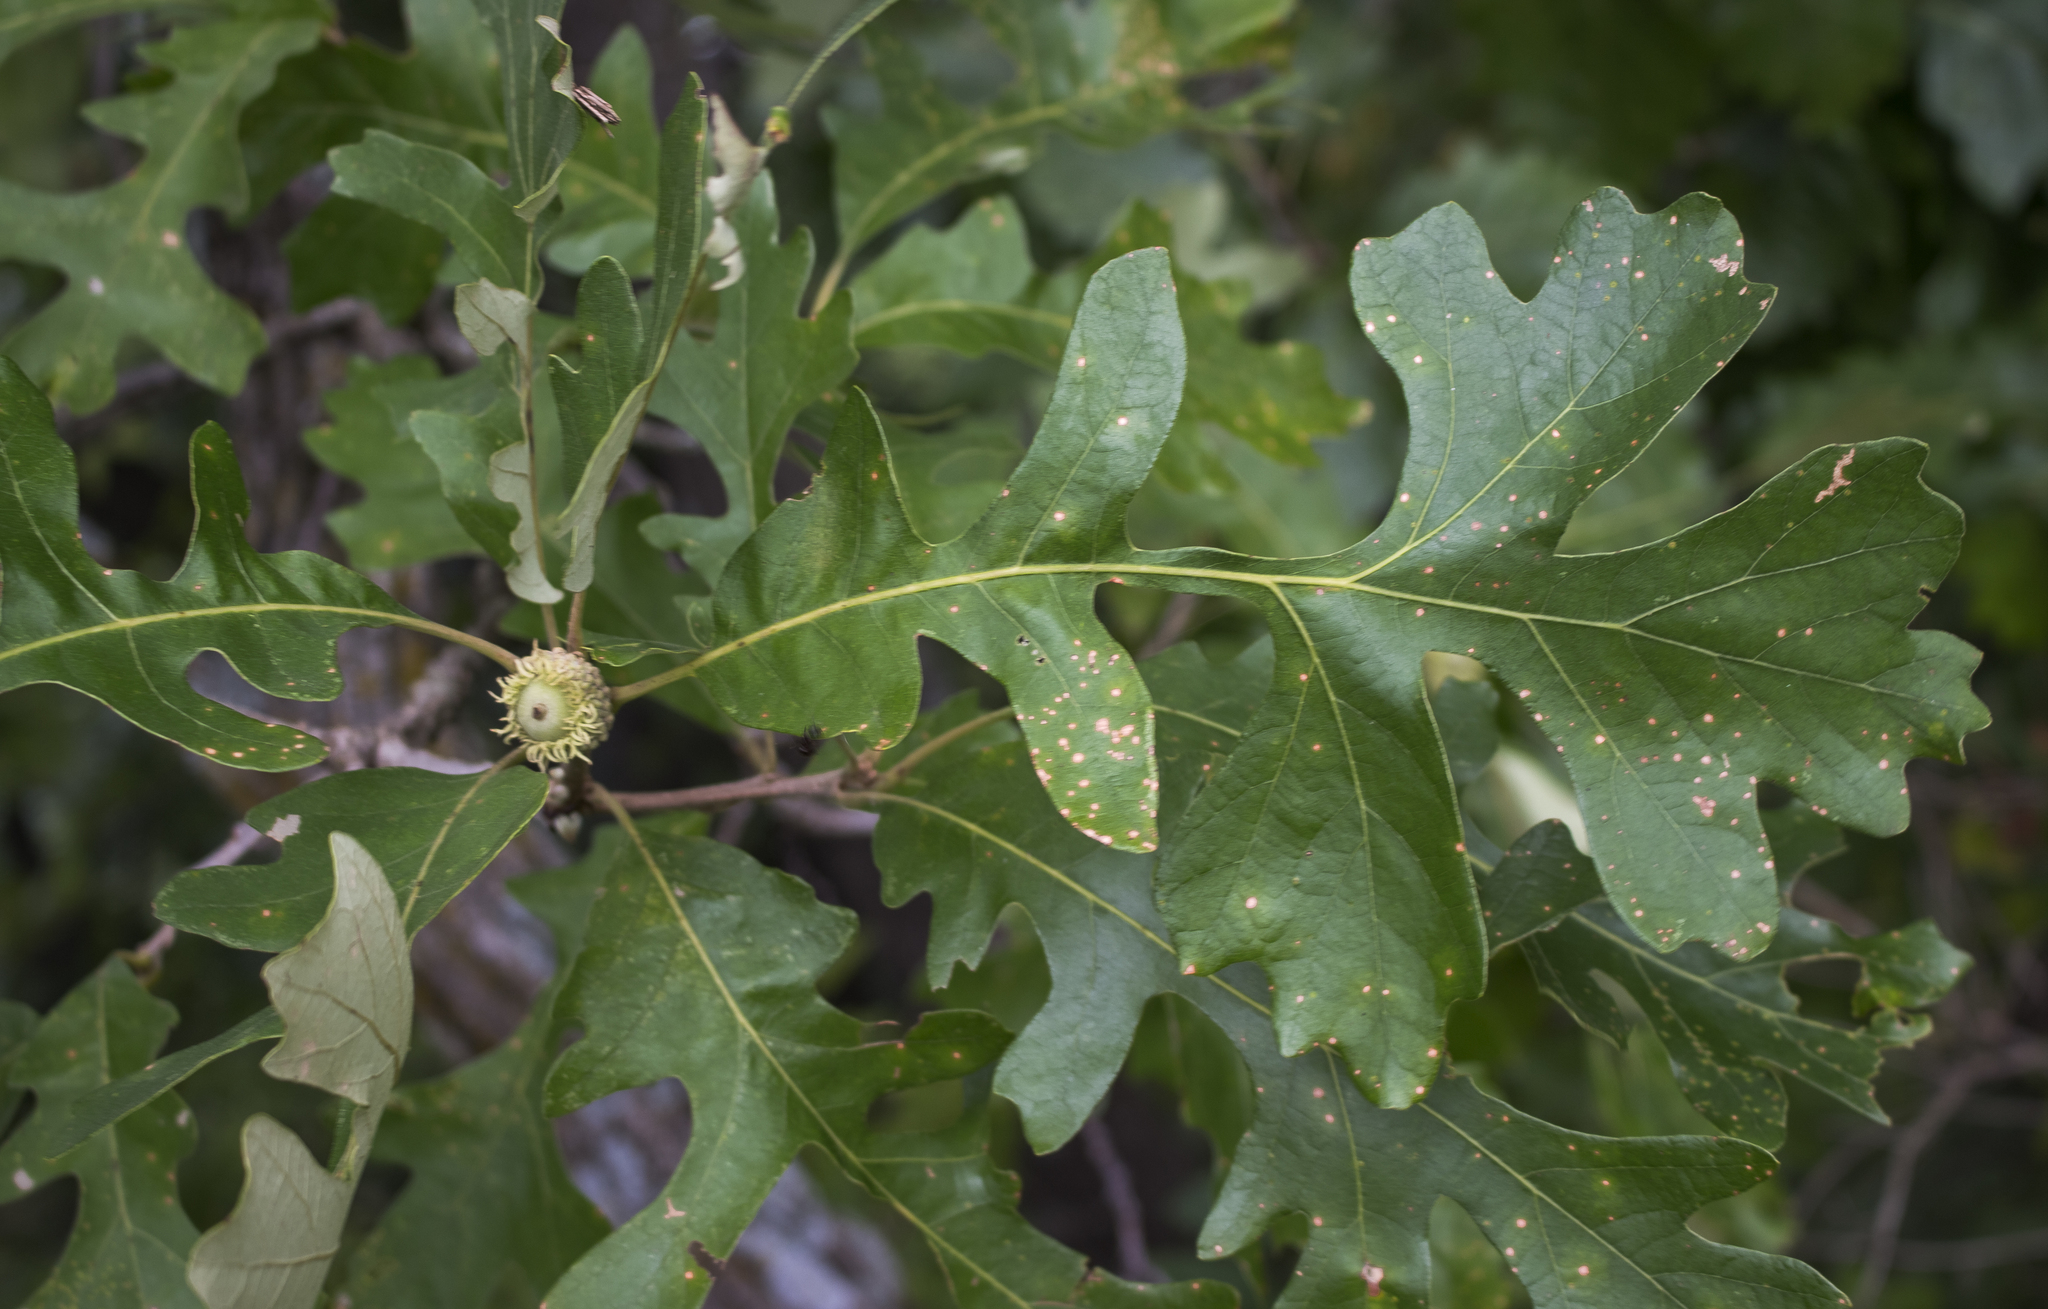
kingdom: Plantae
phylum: Tracheophyta
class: Magnoliopsida
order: Fagales
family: Fagaceae
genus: Quercus
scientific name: Quercus macrocarpa
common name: Bur oak
